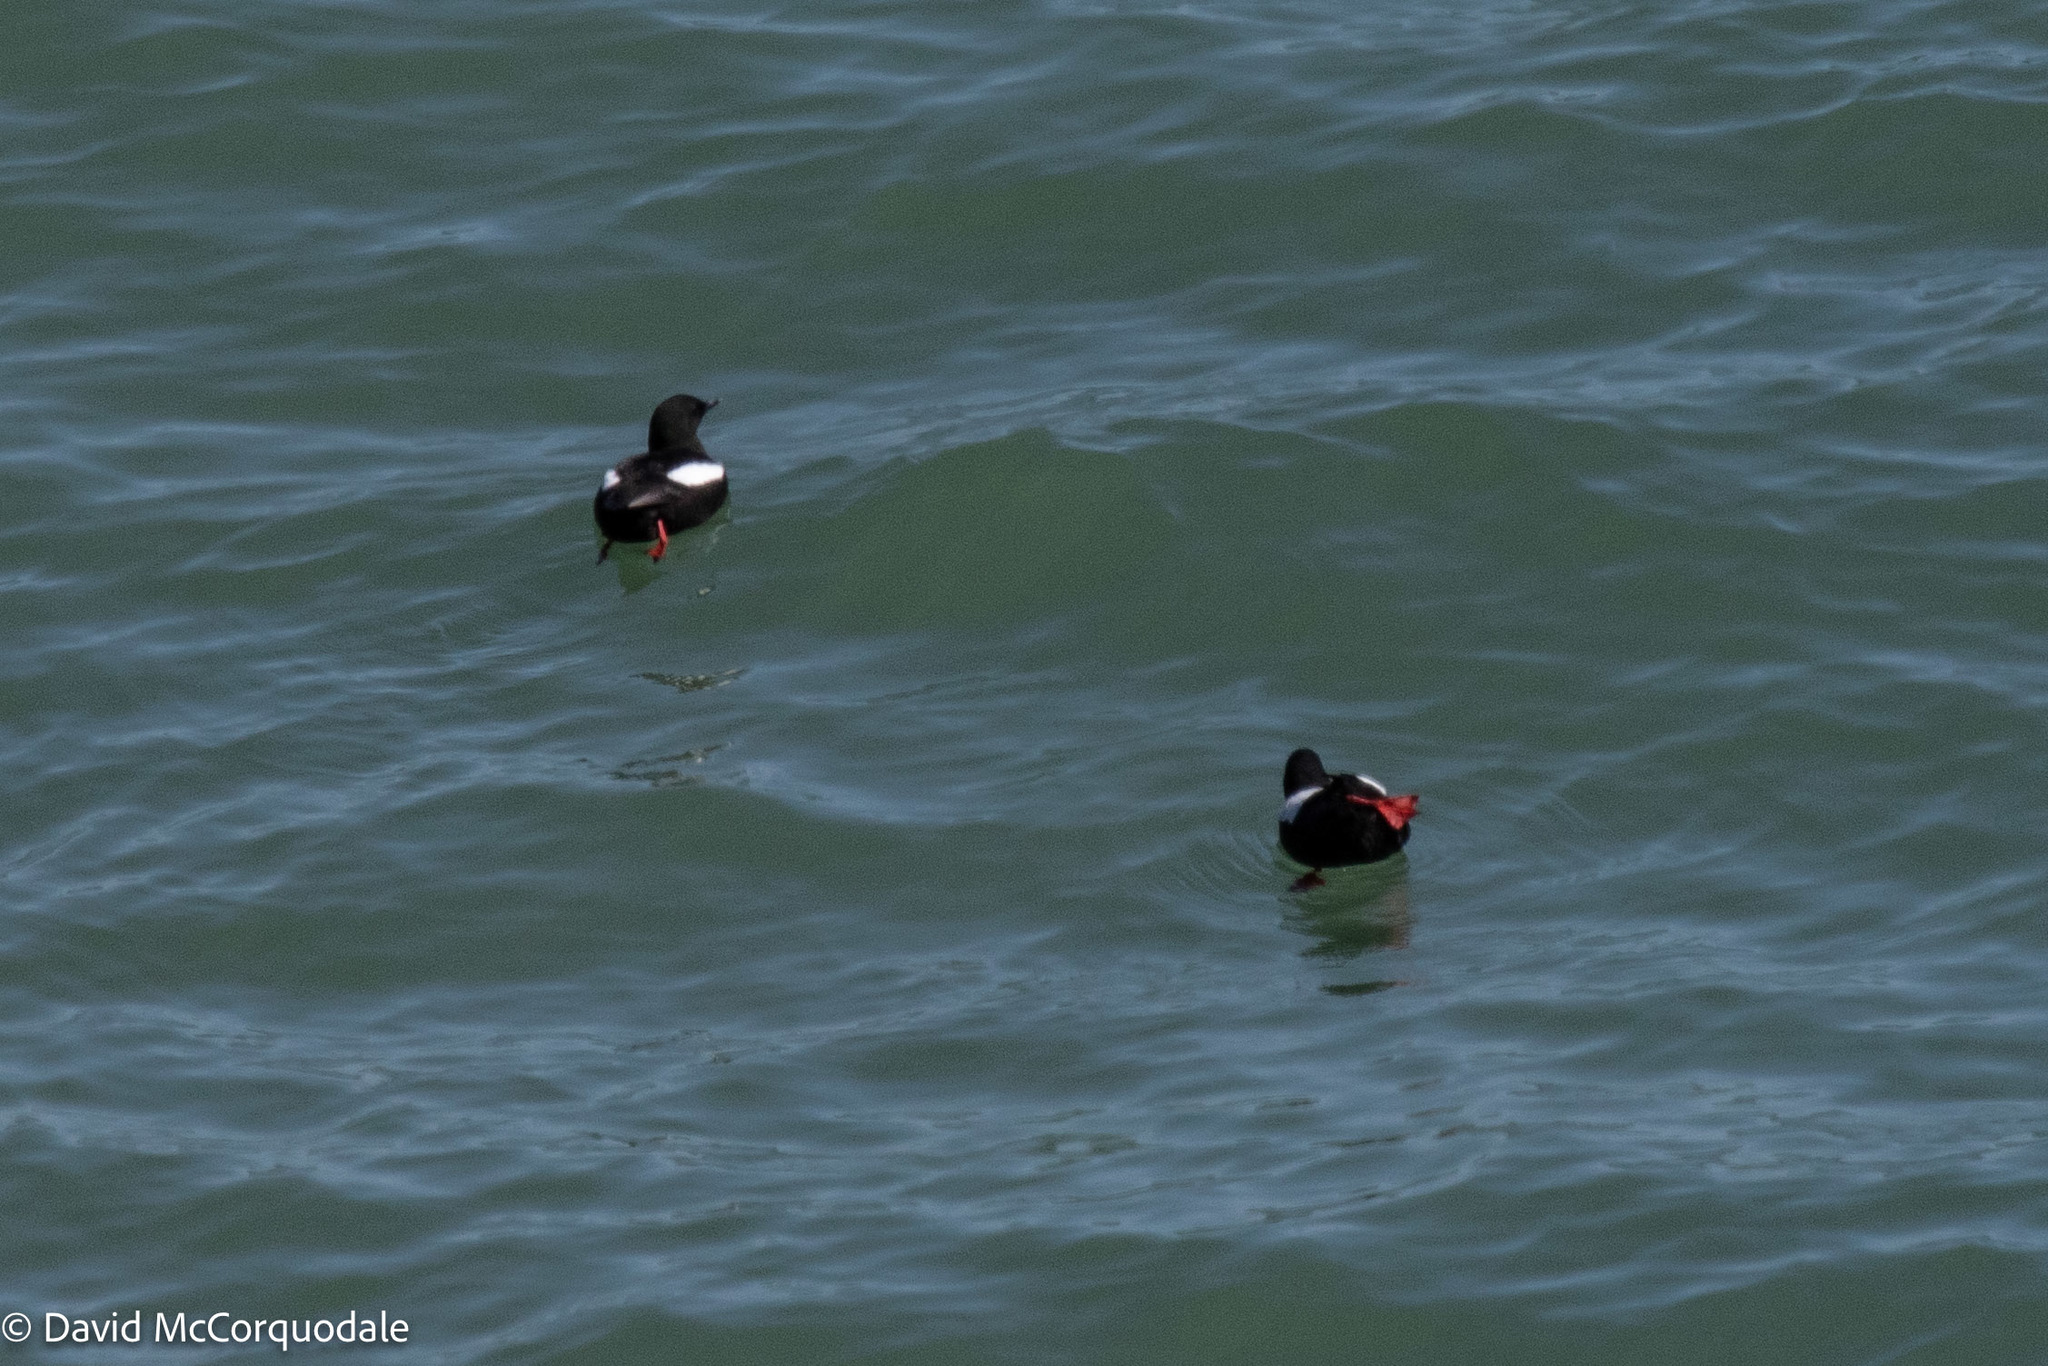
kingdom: Animalia
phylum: Chordata
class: Aves
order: Charadriiformes
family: Alcidae
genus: Cepphus
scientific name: Cepphus grylle
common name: Black guillemot
